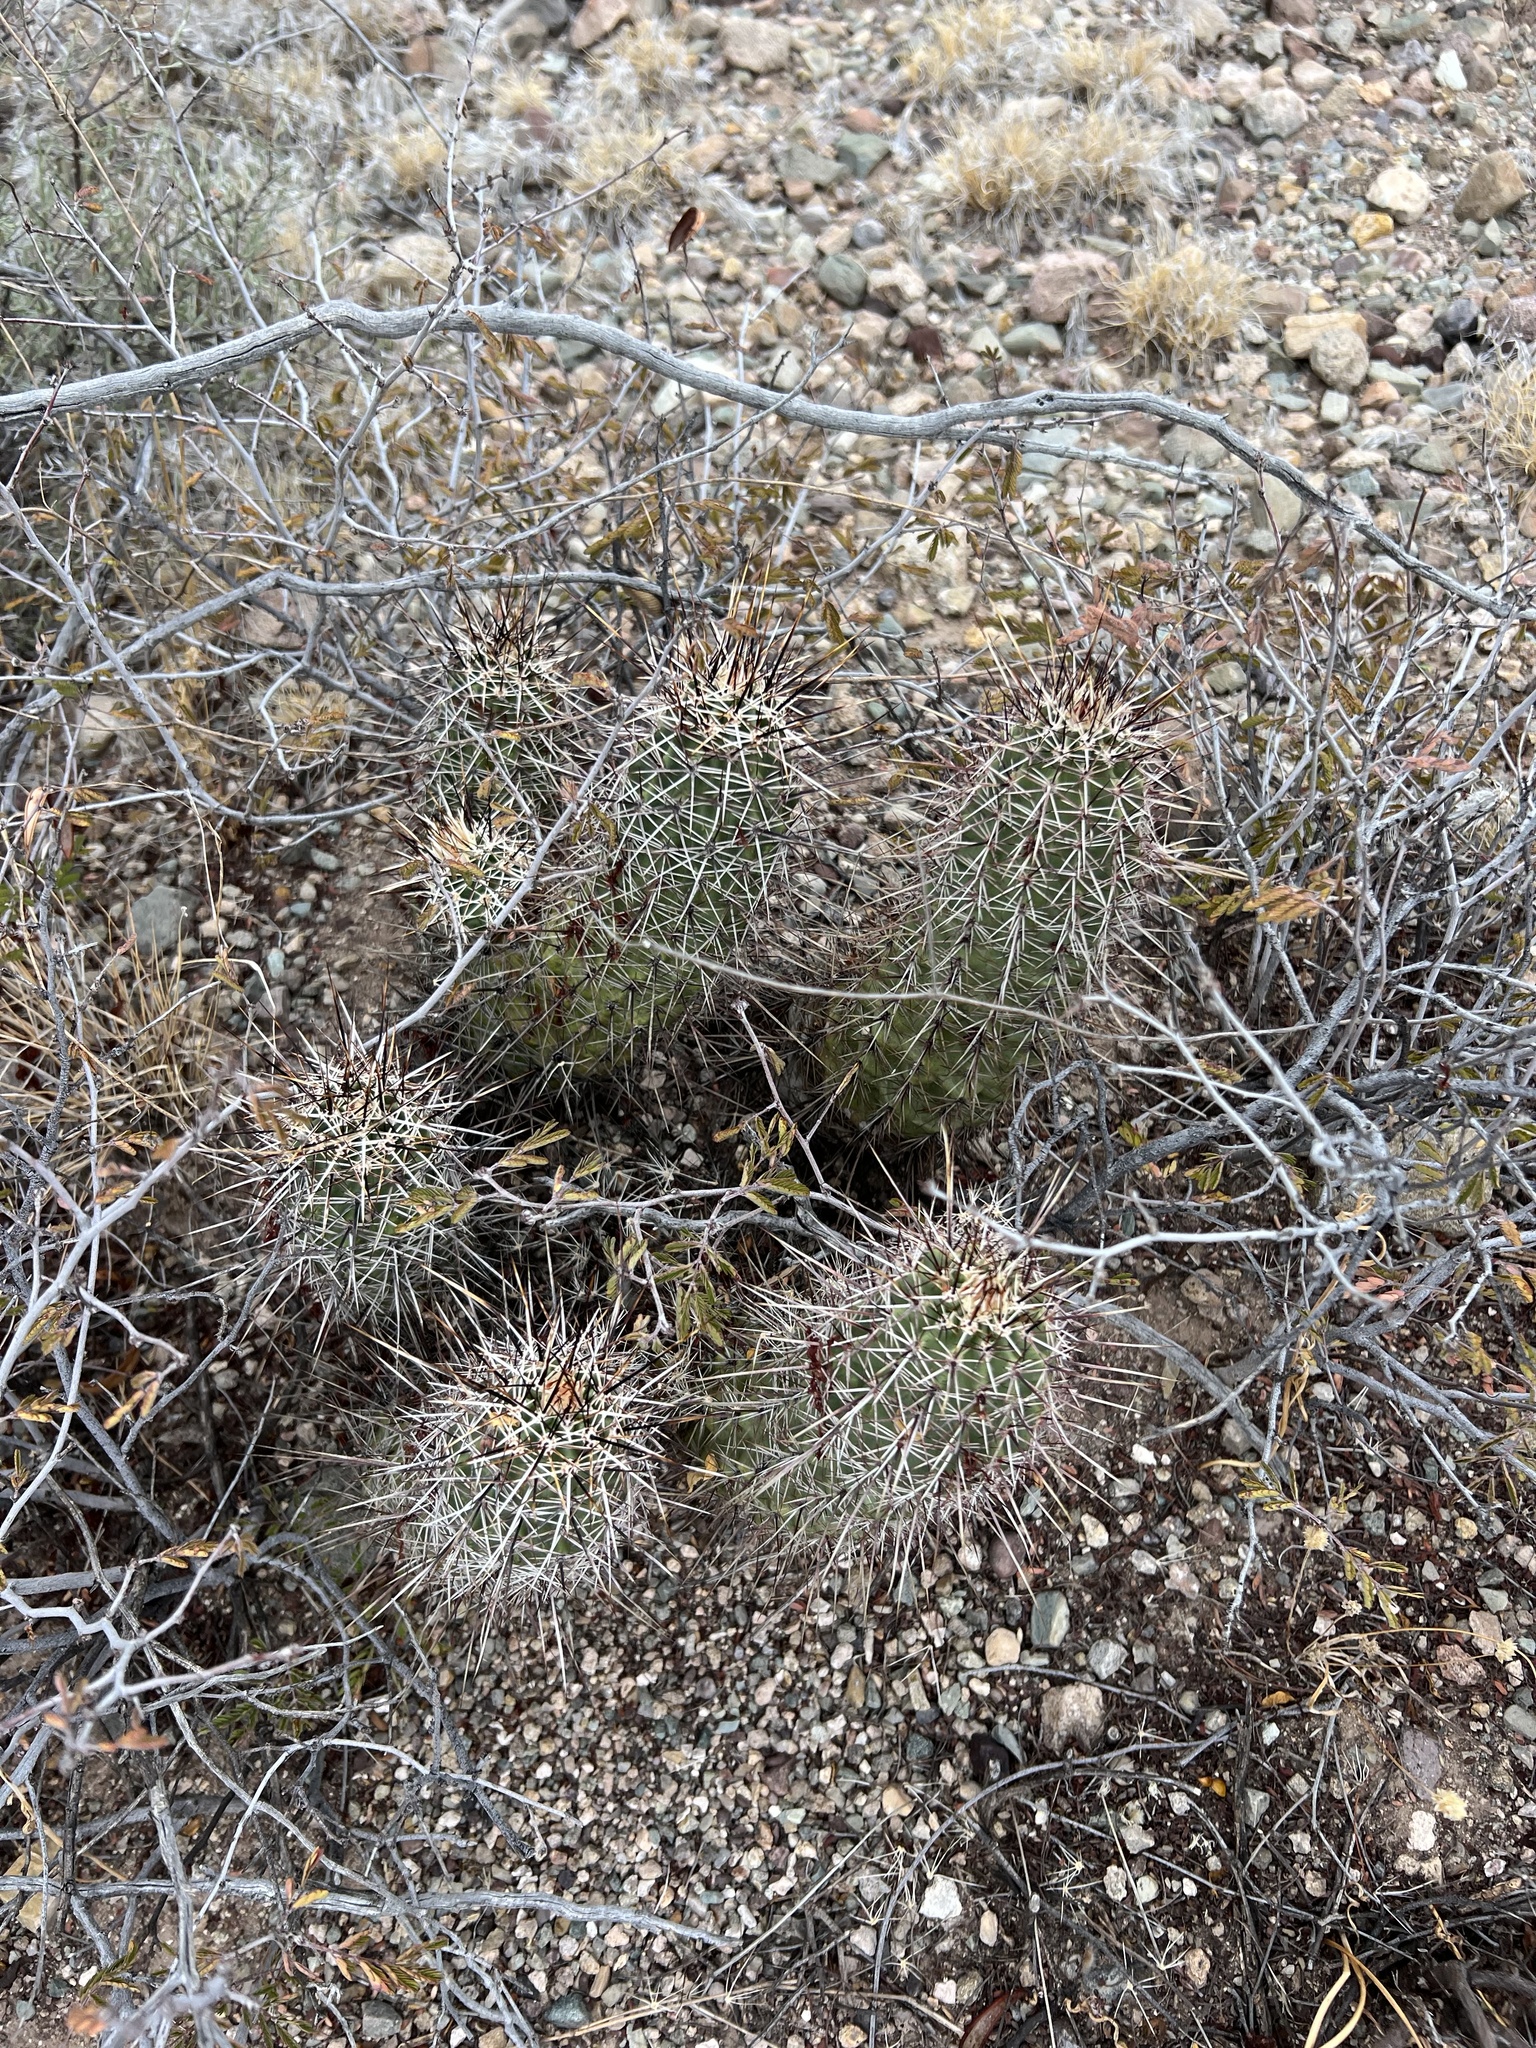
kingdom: Plantae
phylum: Tracheophyta
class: Magnoliopsida
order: Caryophyllales
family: Cactaceae
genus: Echinocereus
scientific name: Echinocereus fasciculatus
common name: Bundle hedgehog
